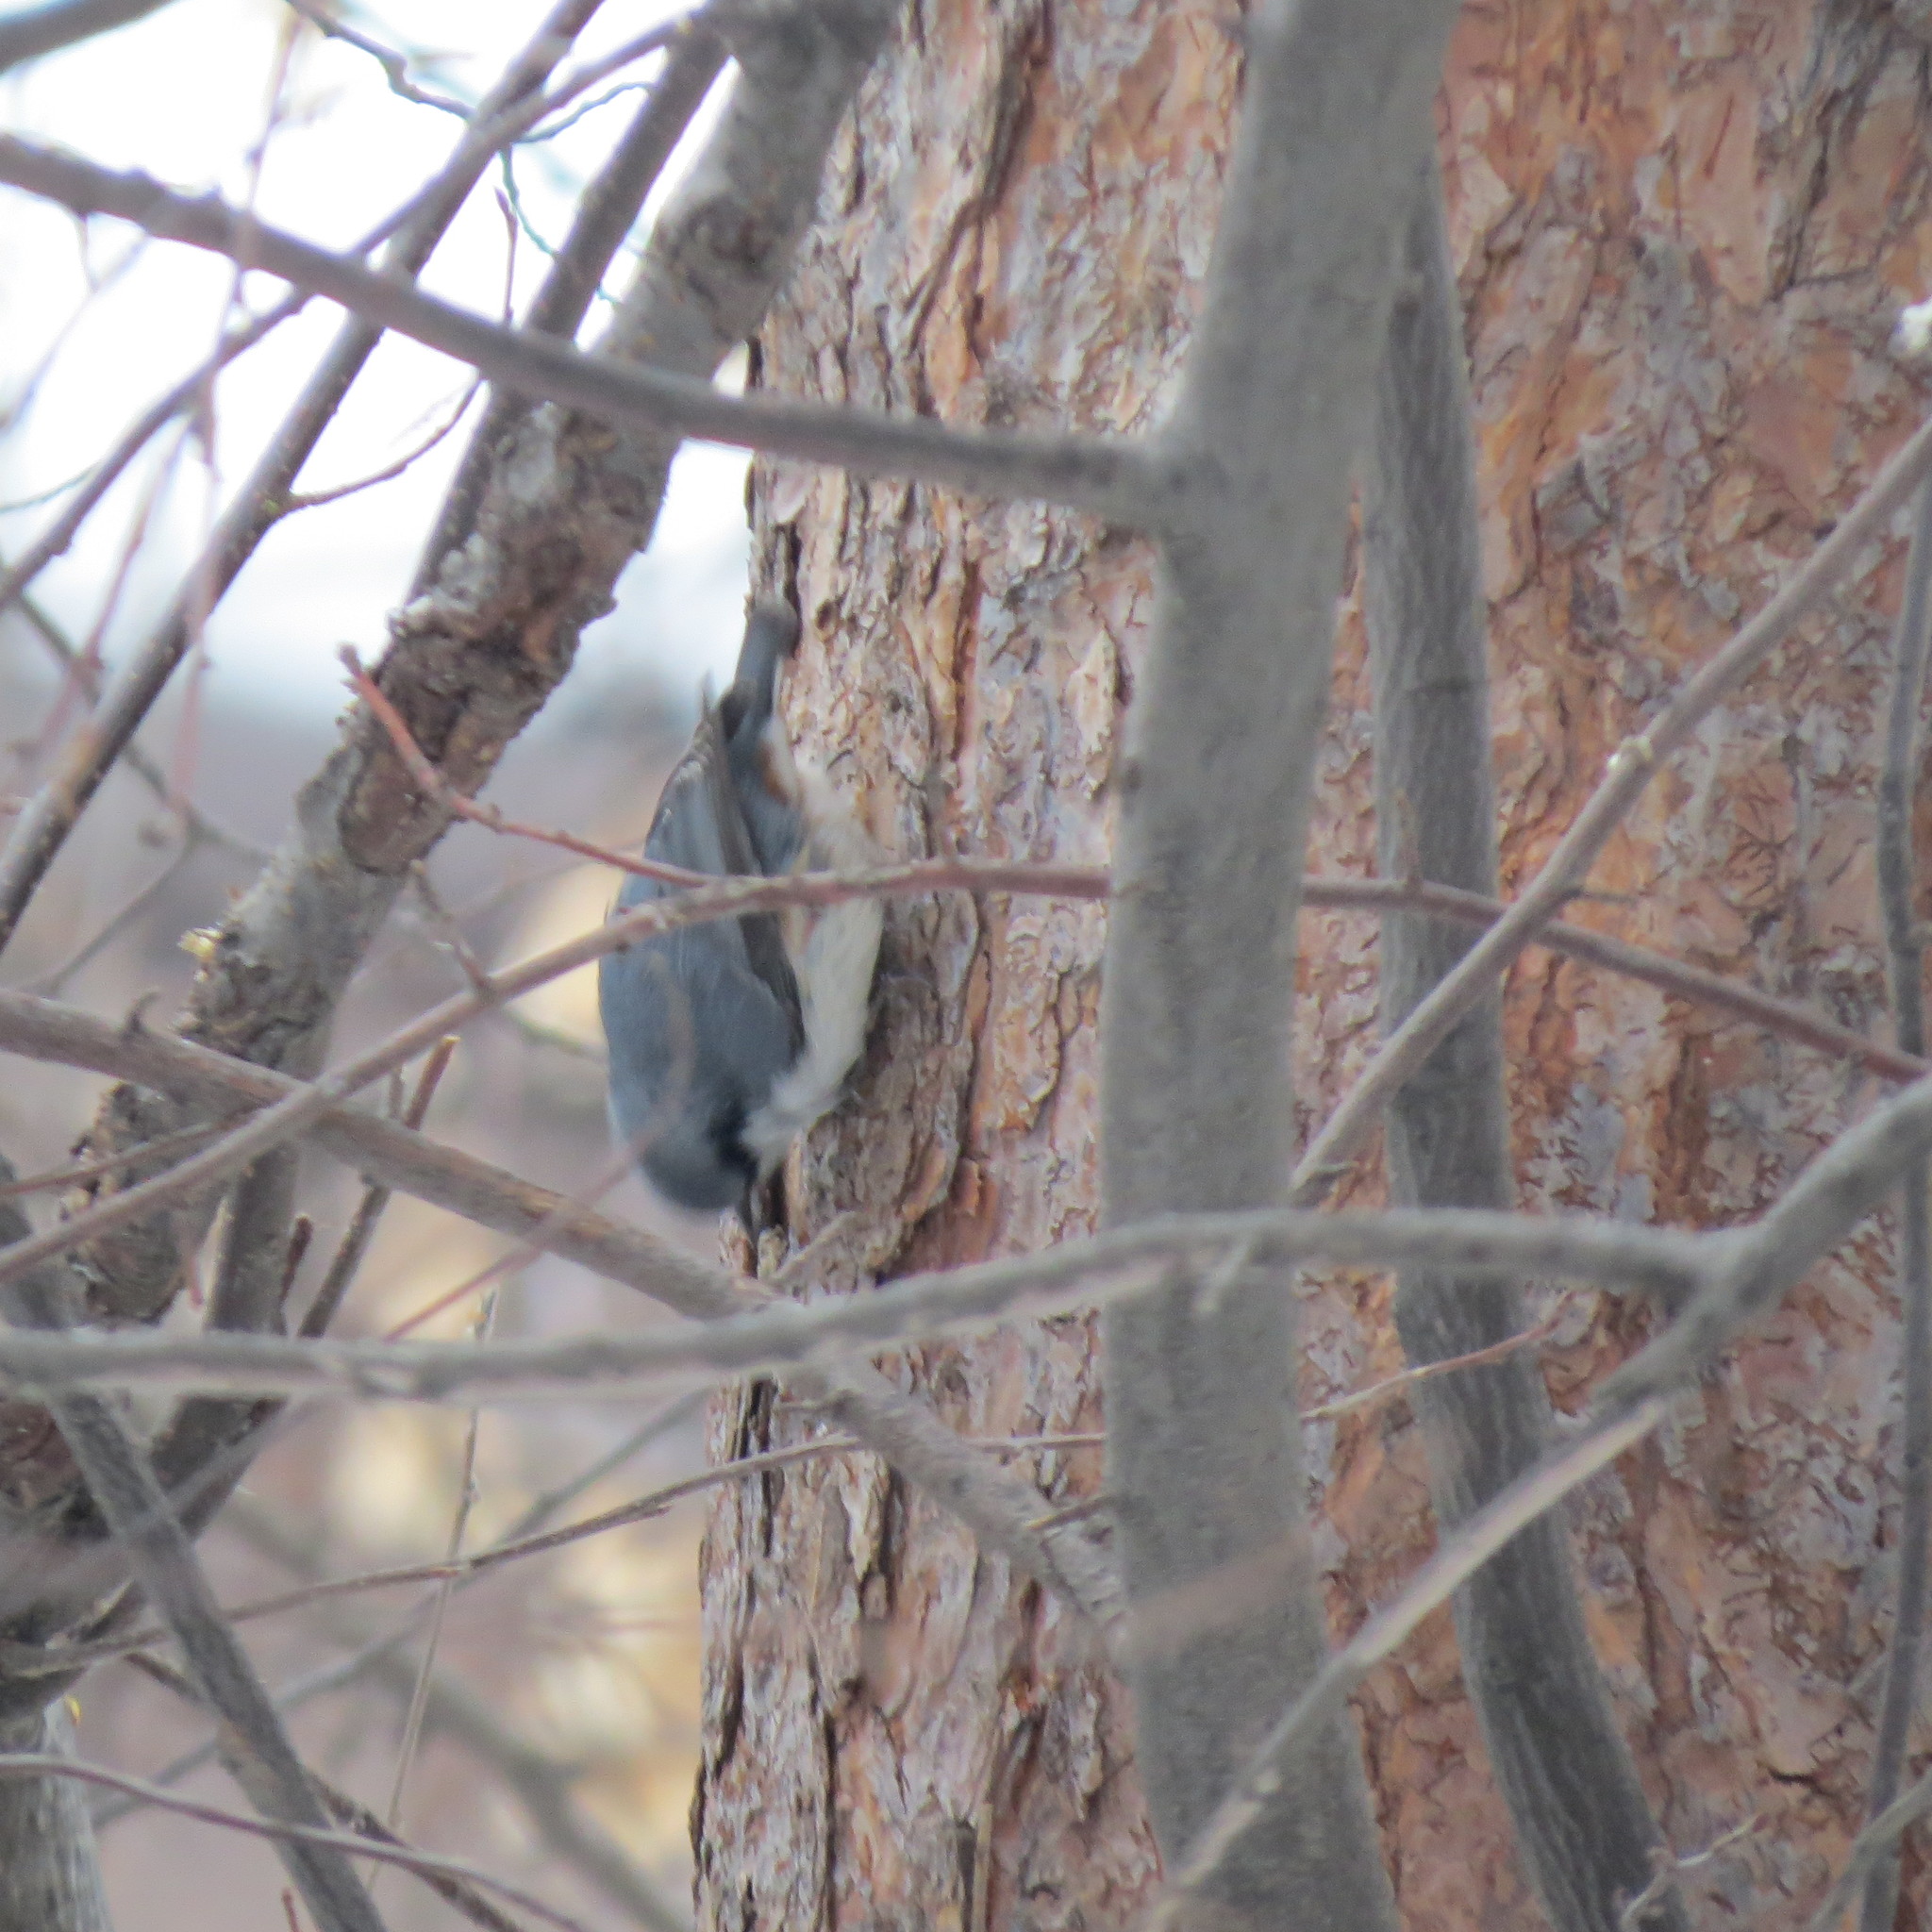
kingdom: Animalia
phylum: Chordata
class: Aves
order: Passeriformes
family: Sittidae
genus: Sitta
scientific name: Sitta europaea
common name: Eurasian nuthatch
